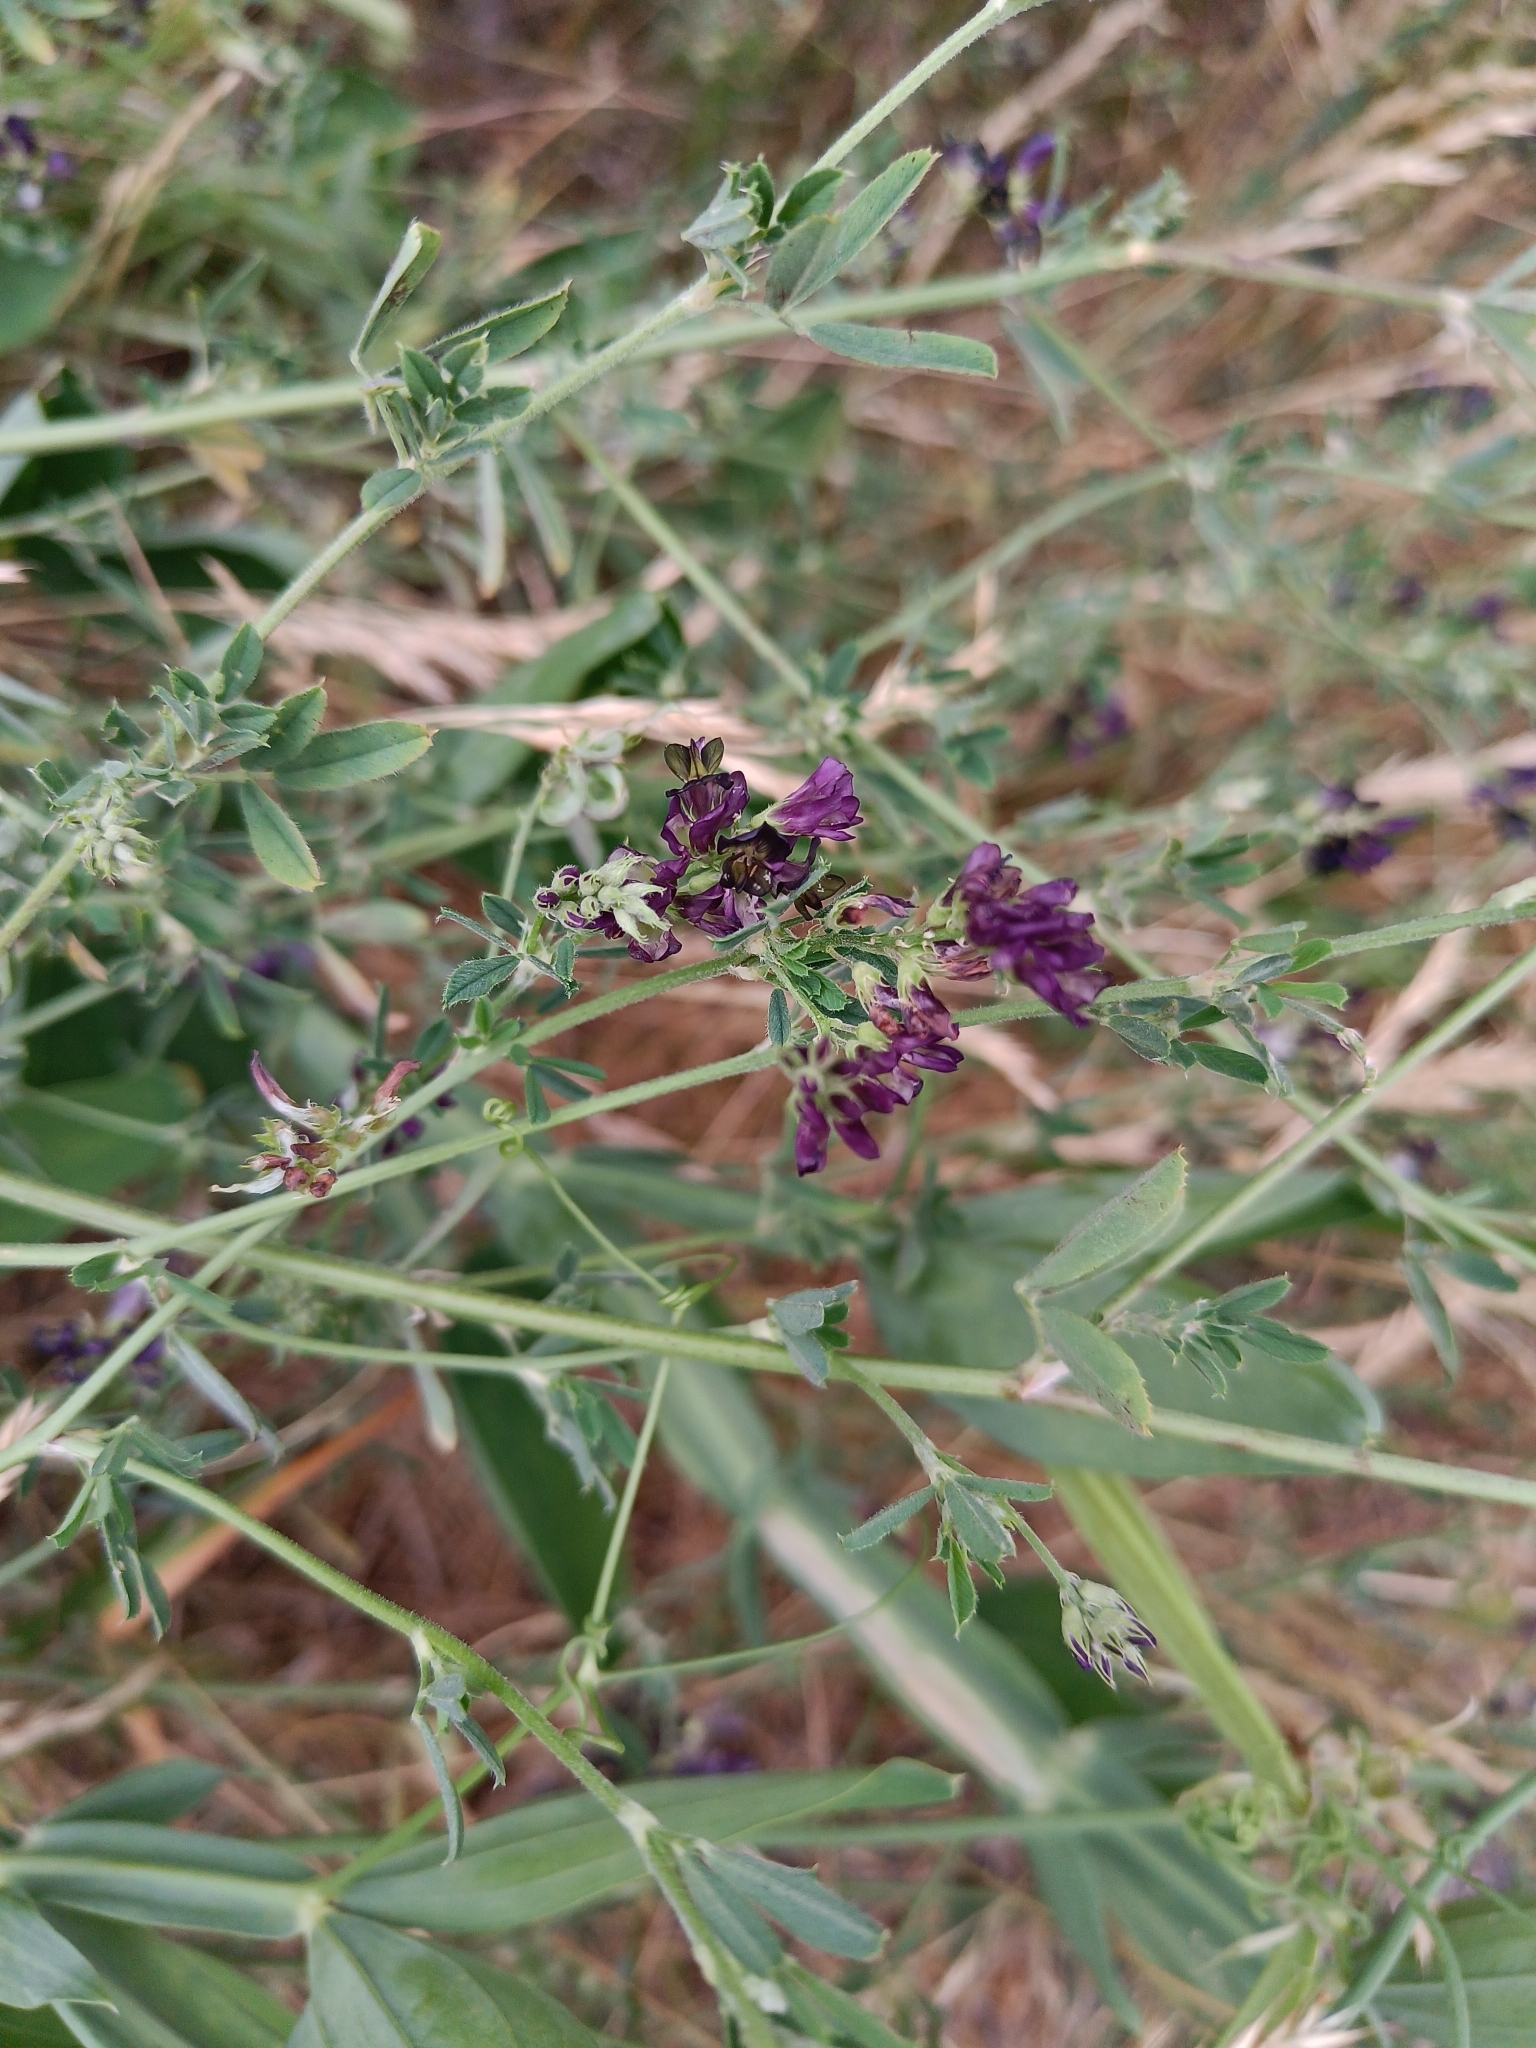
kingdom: Plantae
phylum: Tracheophyta
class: Magnoliopsida
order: Fabales
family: Fabaceae
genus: Medicago
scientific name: Medicago sativa
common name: Alfalfa
